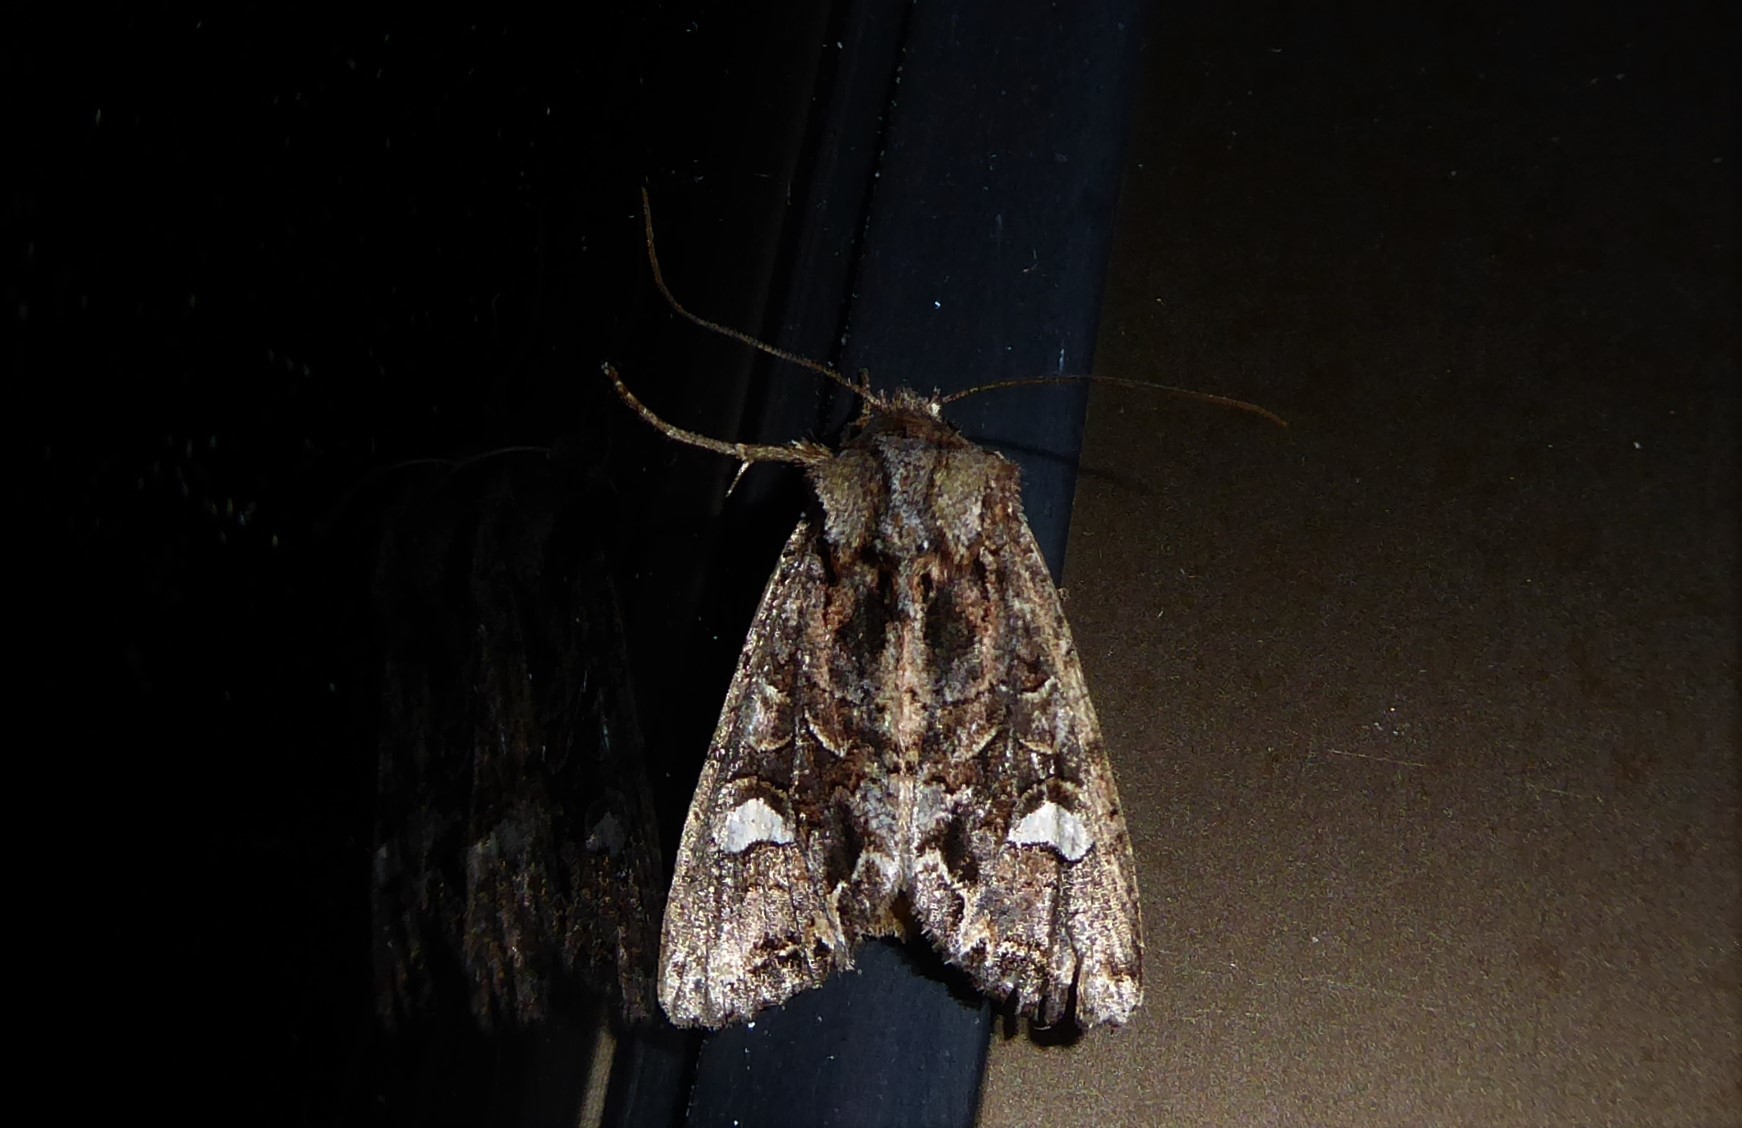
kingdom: Animalia
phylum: Arthropoda
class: Insecta
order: Lepidoptera
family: Noctuidae
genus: Ichneutica
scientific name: Ichneutica insignis
